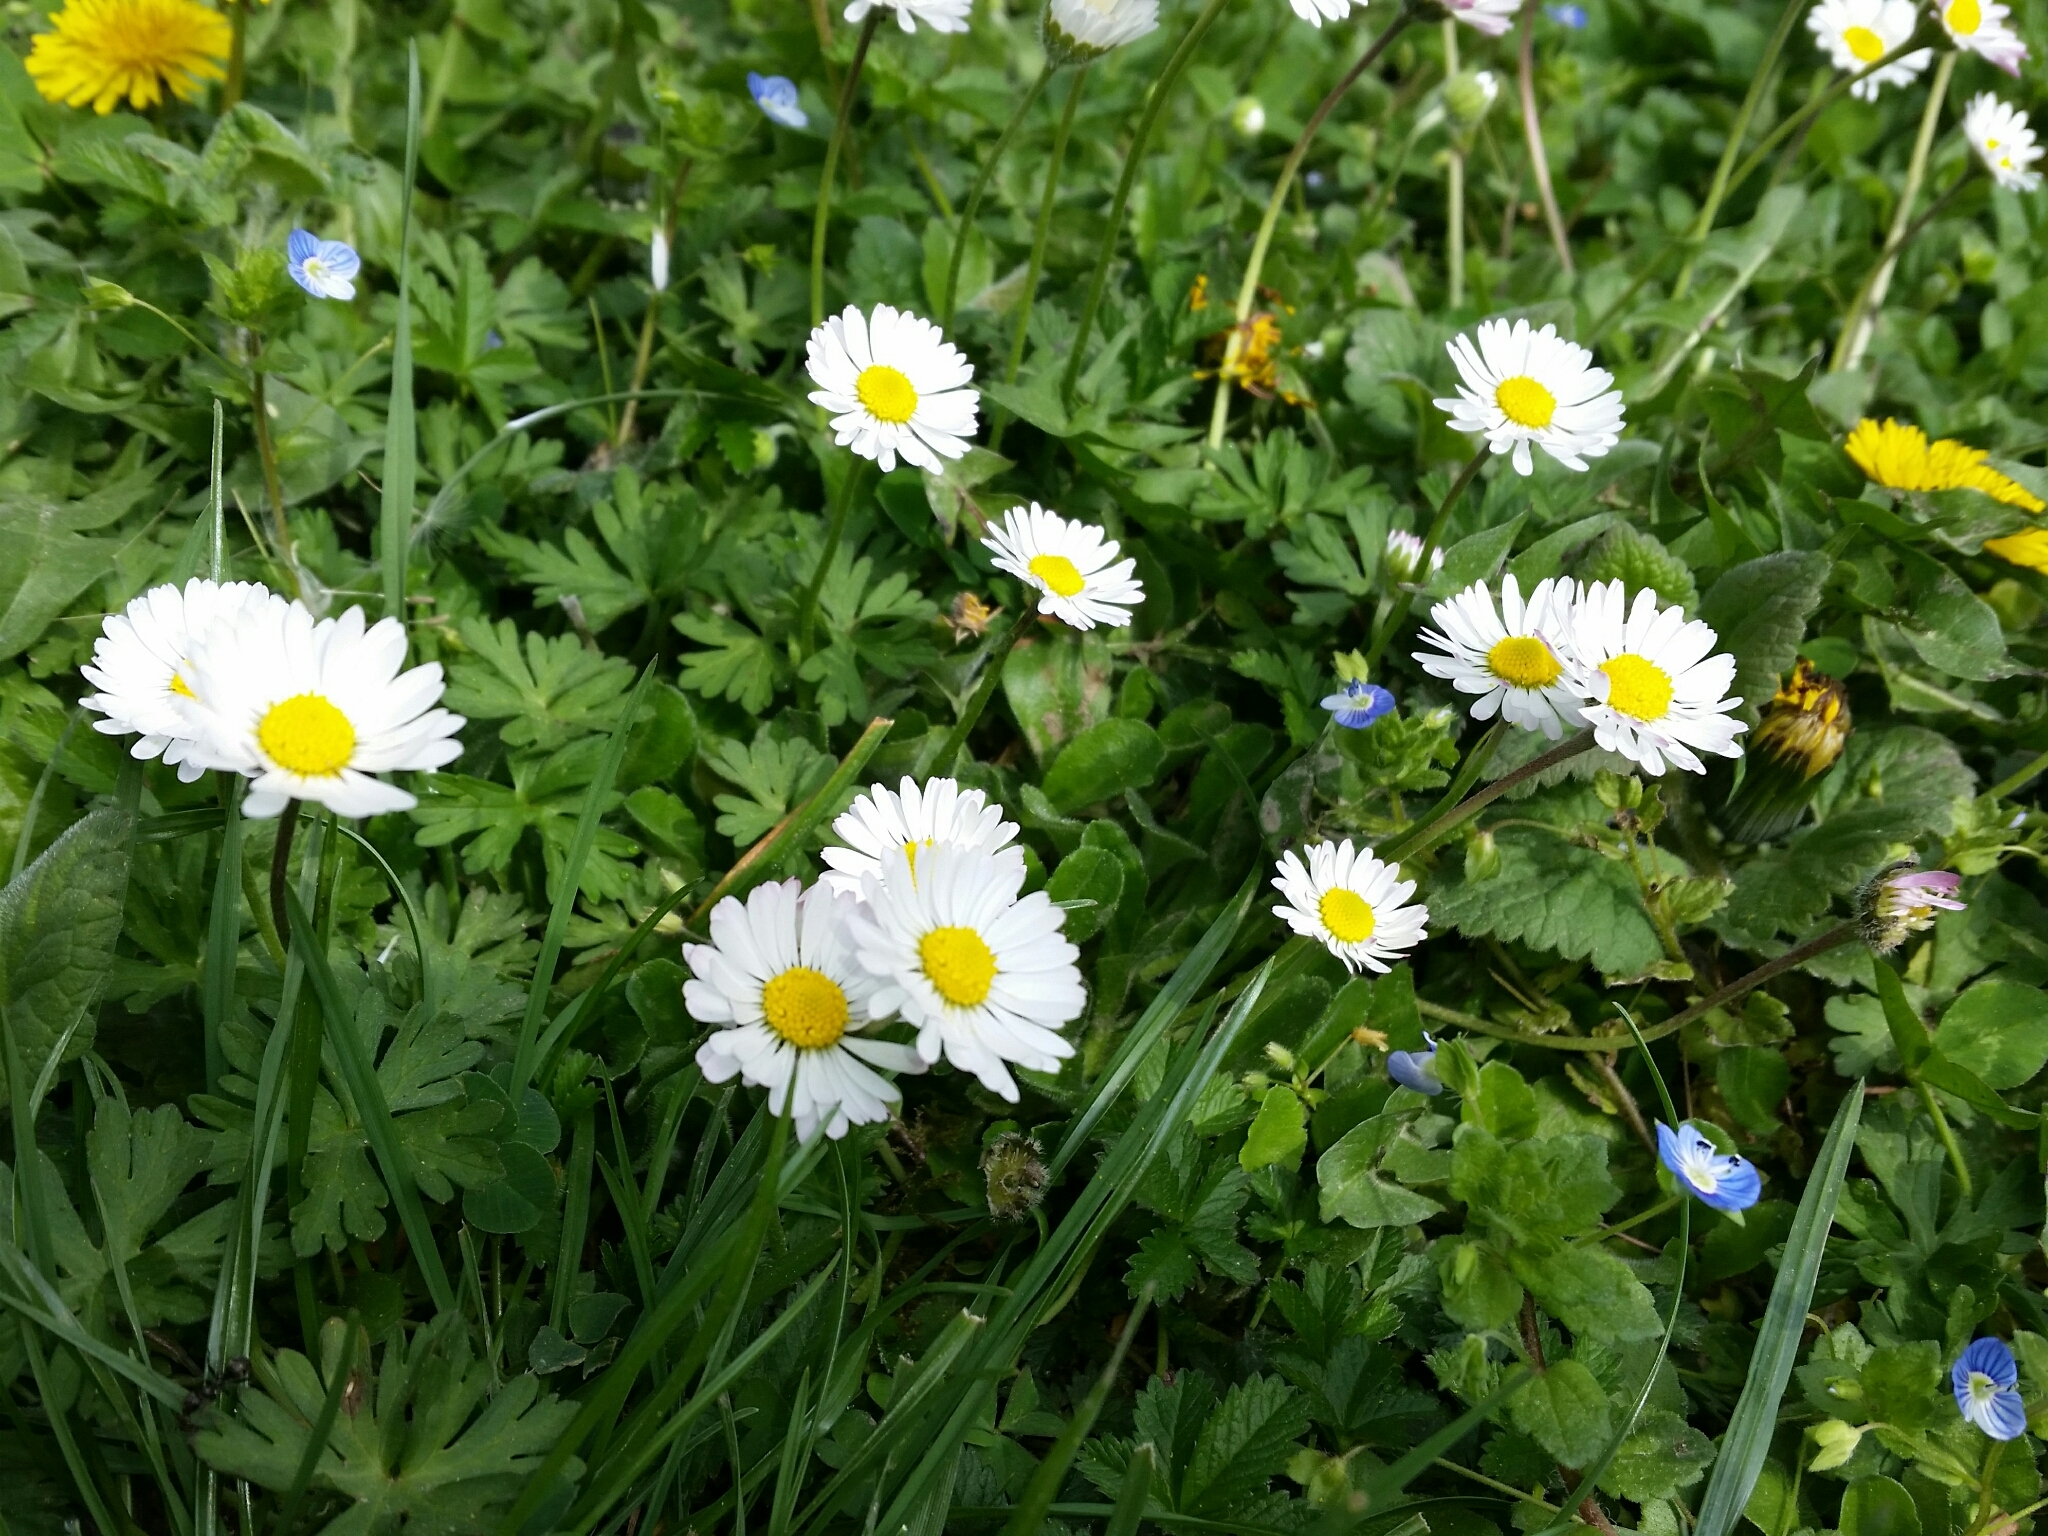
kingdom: Plantae
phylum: Tracheophyta
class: Magnoliopsida
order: Asterales
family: Asteraceae
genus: Bellis
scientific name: Bellis perennis
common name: Lawndaisy
